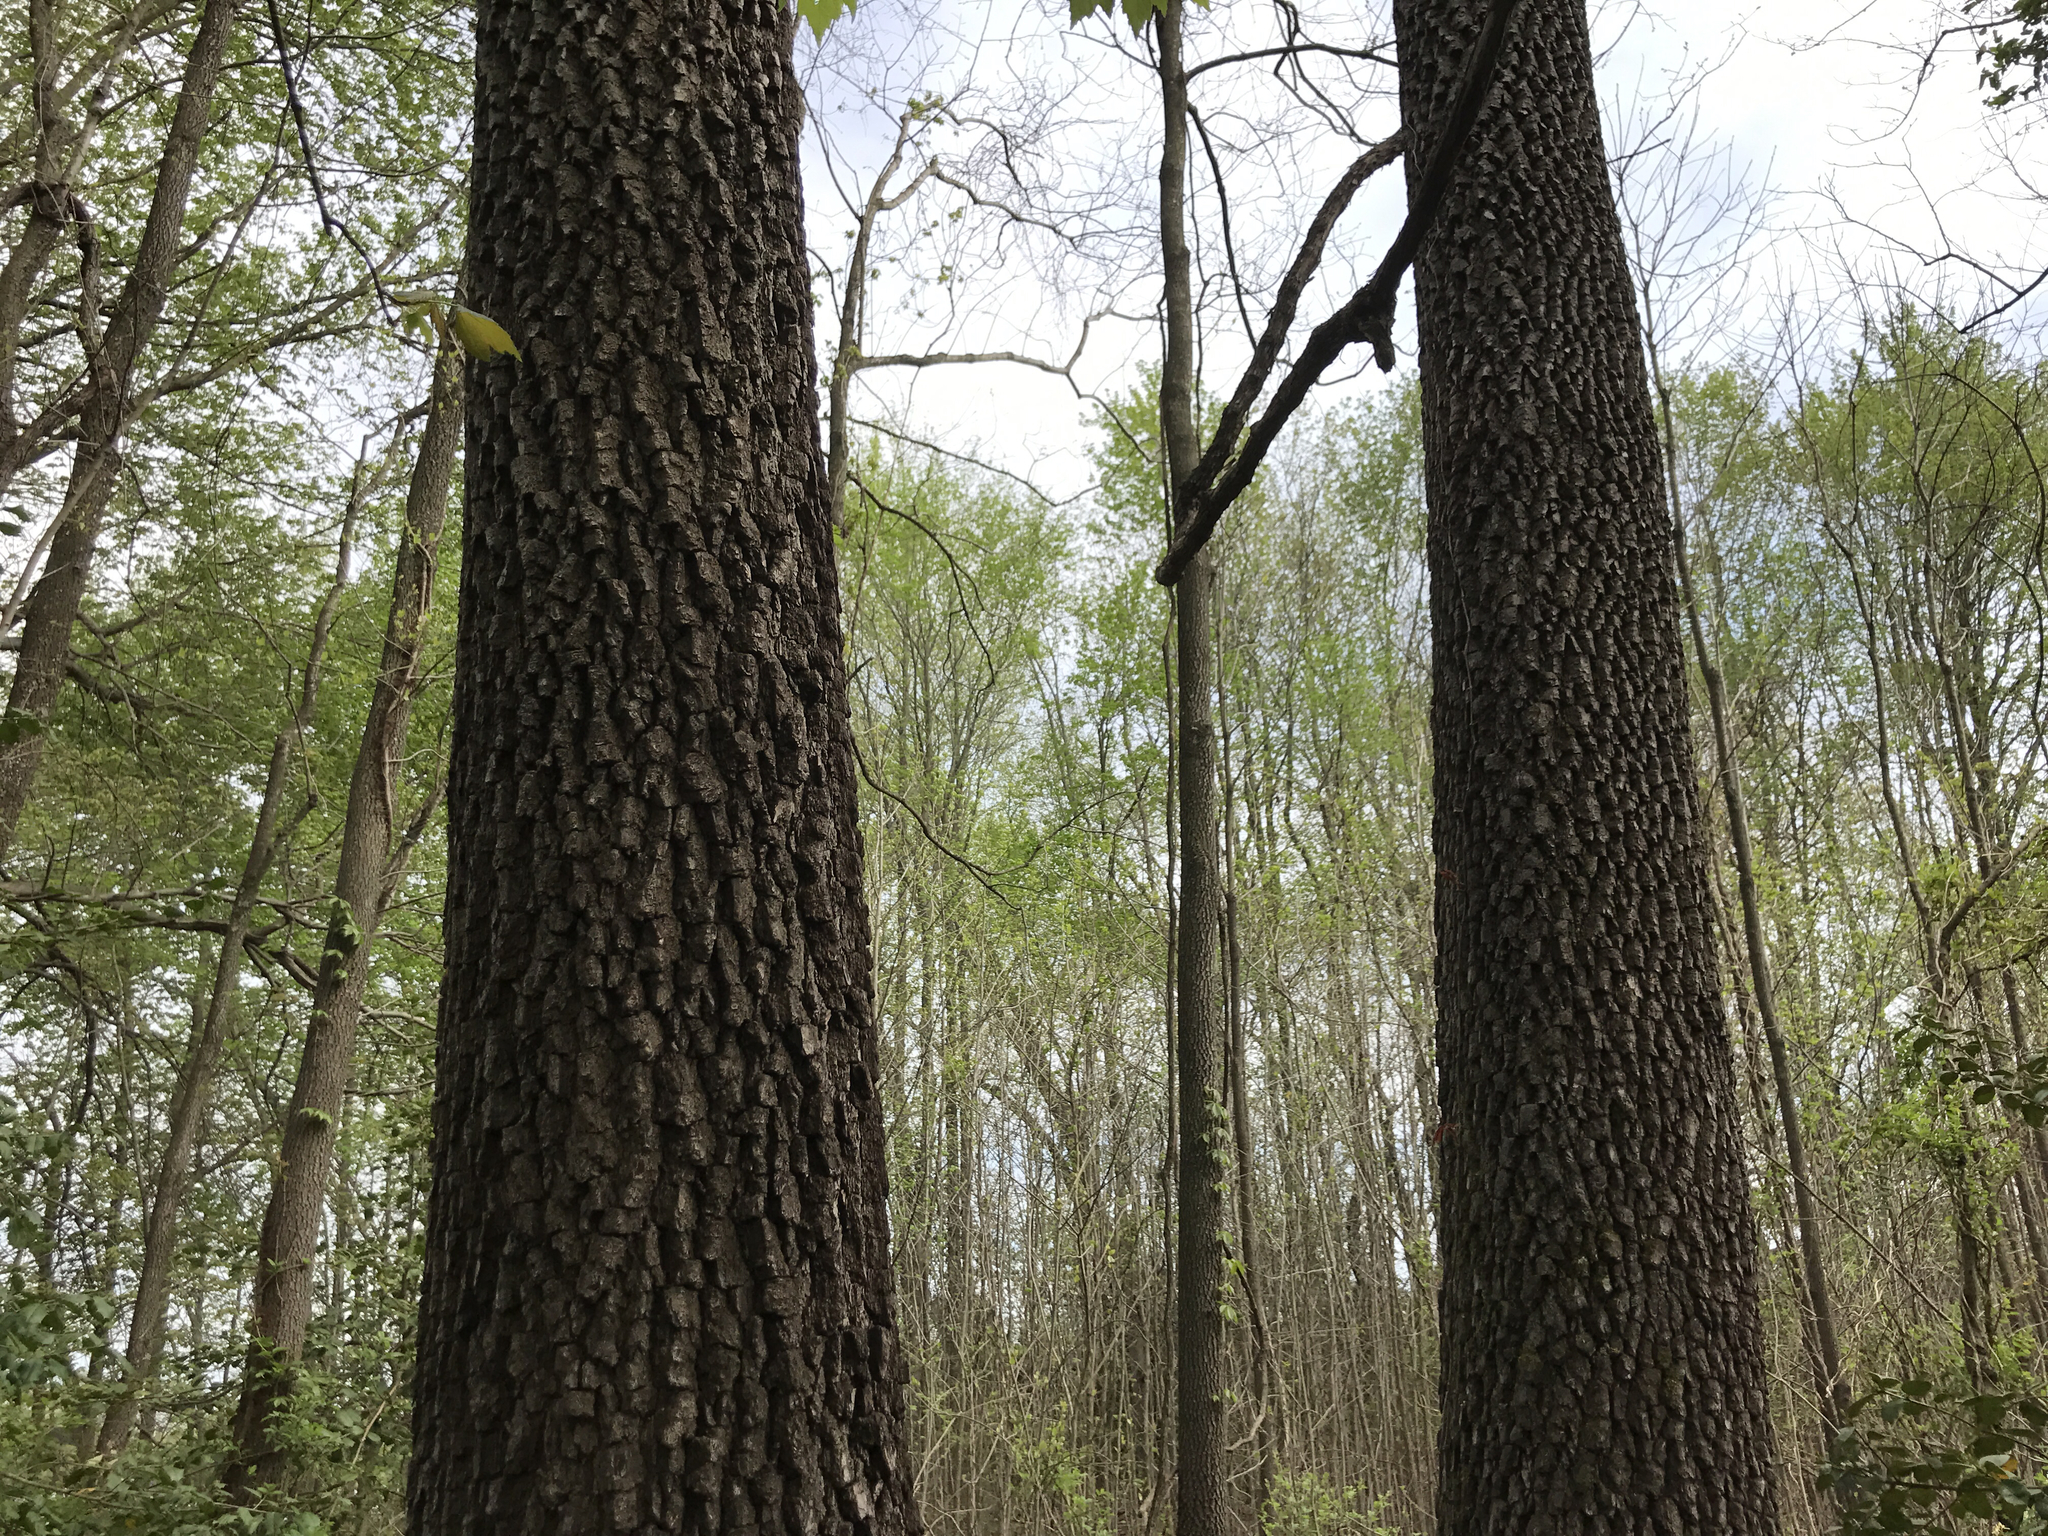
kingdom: Plantae
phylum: Tracheophyta
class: Magnoliopsida
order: Ericales
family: Ebenaceae
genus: Diospyros
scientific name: Diospyros virginiana
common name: Persimmon
